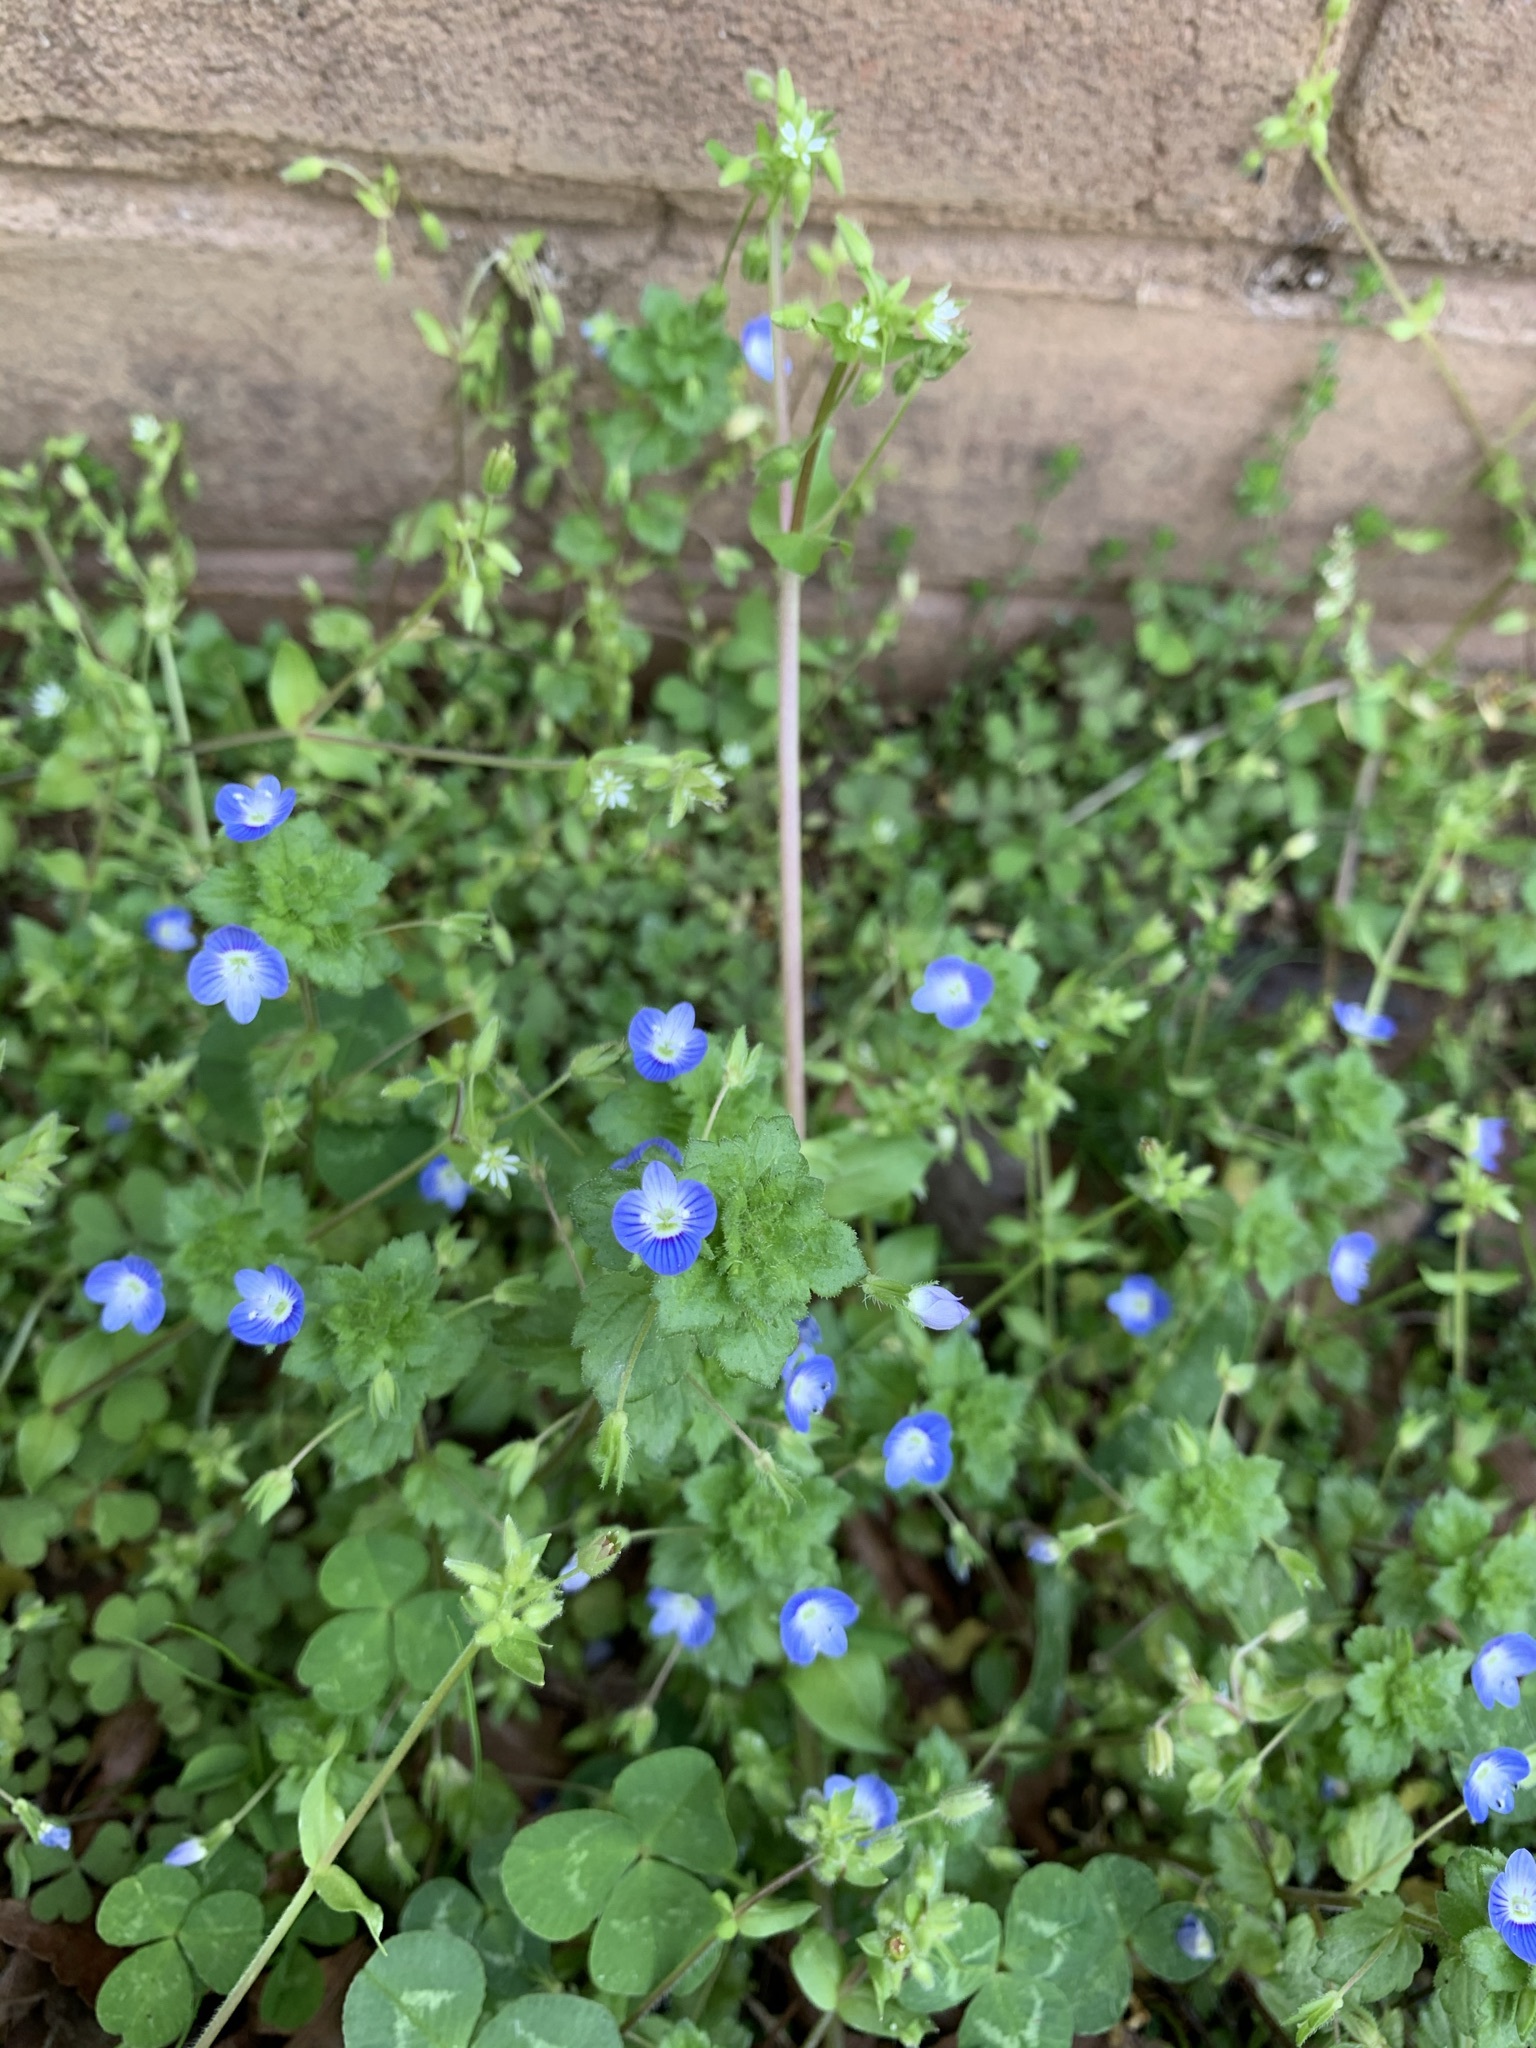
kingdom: Plantae
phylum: Tracheophyta
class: Magnoliopsida
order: Lamiales
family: Plantaginaceae
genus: Veronica
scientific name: Veronica persica
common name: Common field-speedwell
